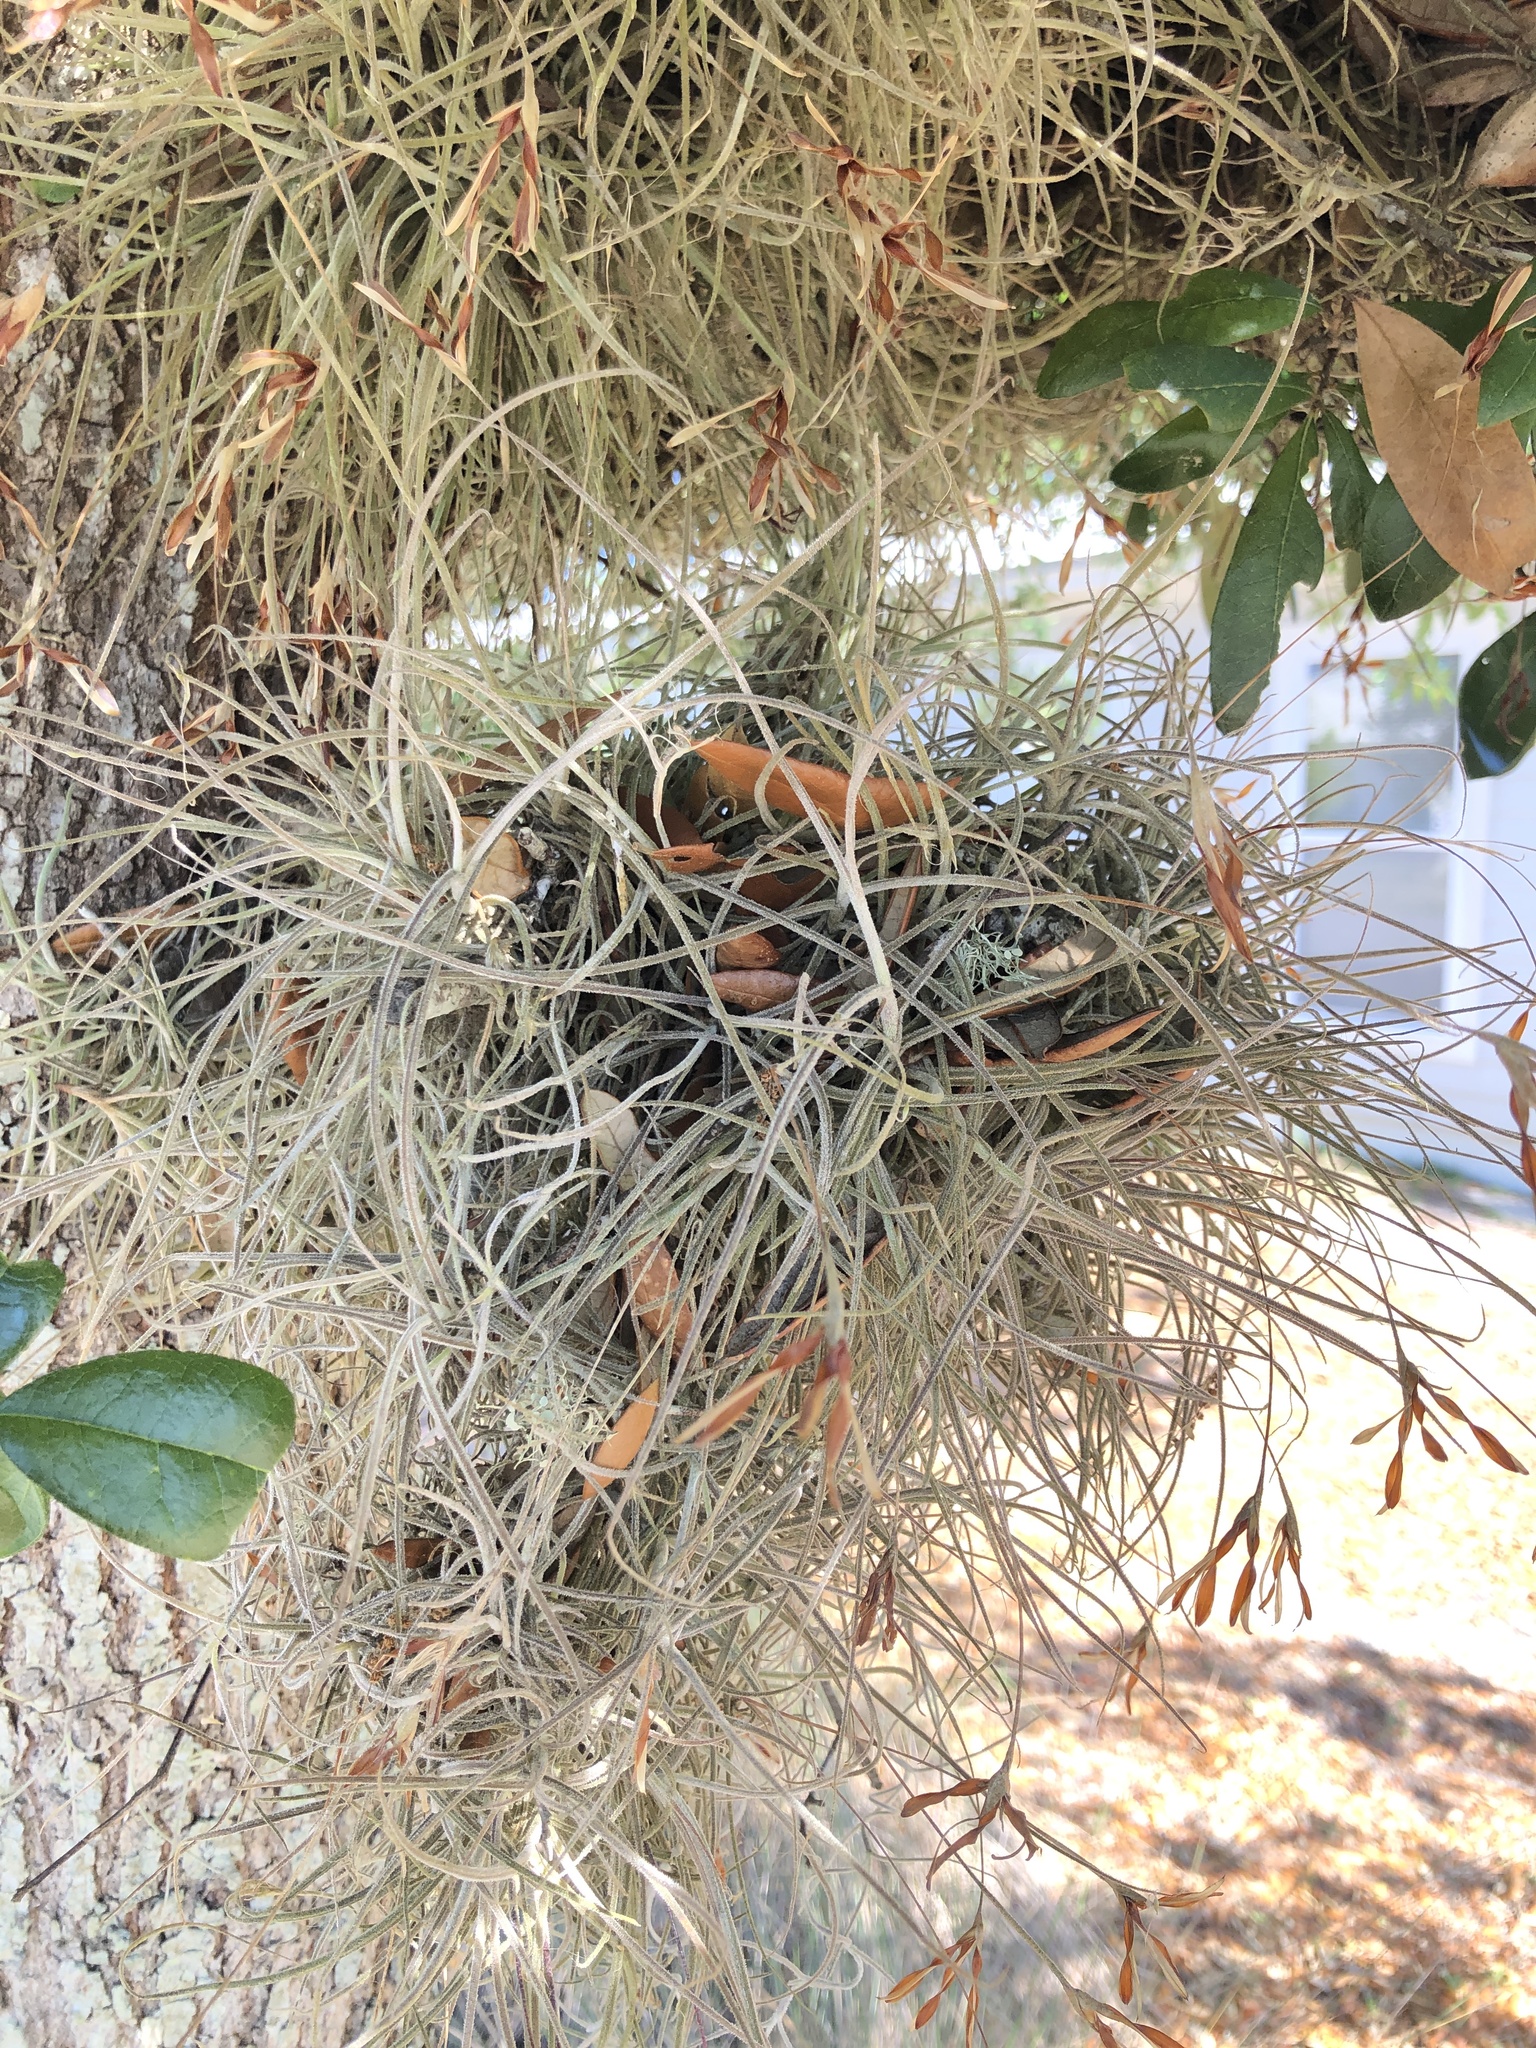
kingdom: Plantae
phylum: Tracheophyta
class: Liliopsida
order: Poales
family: Bromeliaceae
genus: Tillandsia
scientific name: Tillandsia recurvata
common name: Small ballmoss
